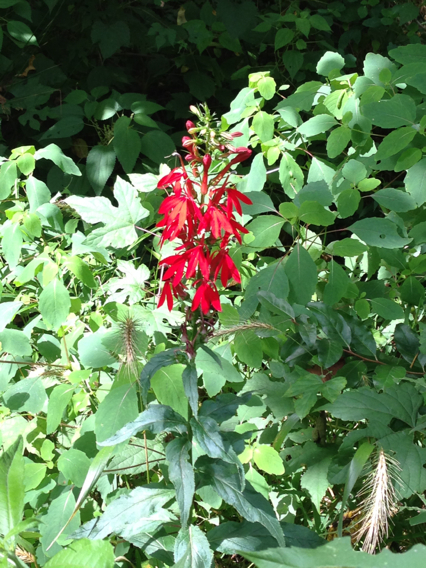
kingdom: Plantae
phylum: Tracheophyta
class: Magnoliopsida
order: Asterales
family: Campanulaceae
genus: Lobelia
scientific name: Lobelia cardinalis
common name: Cardinal flower
